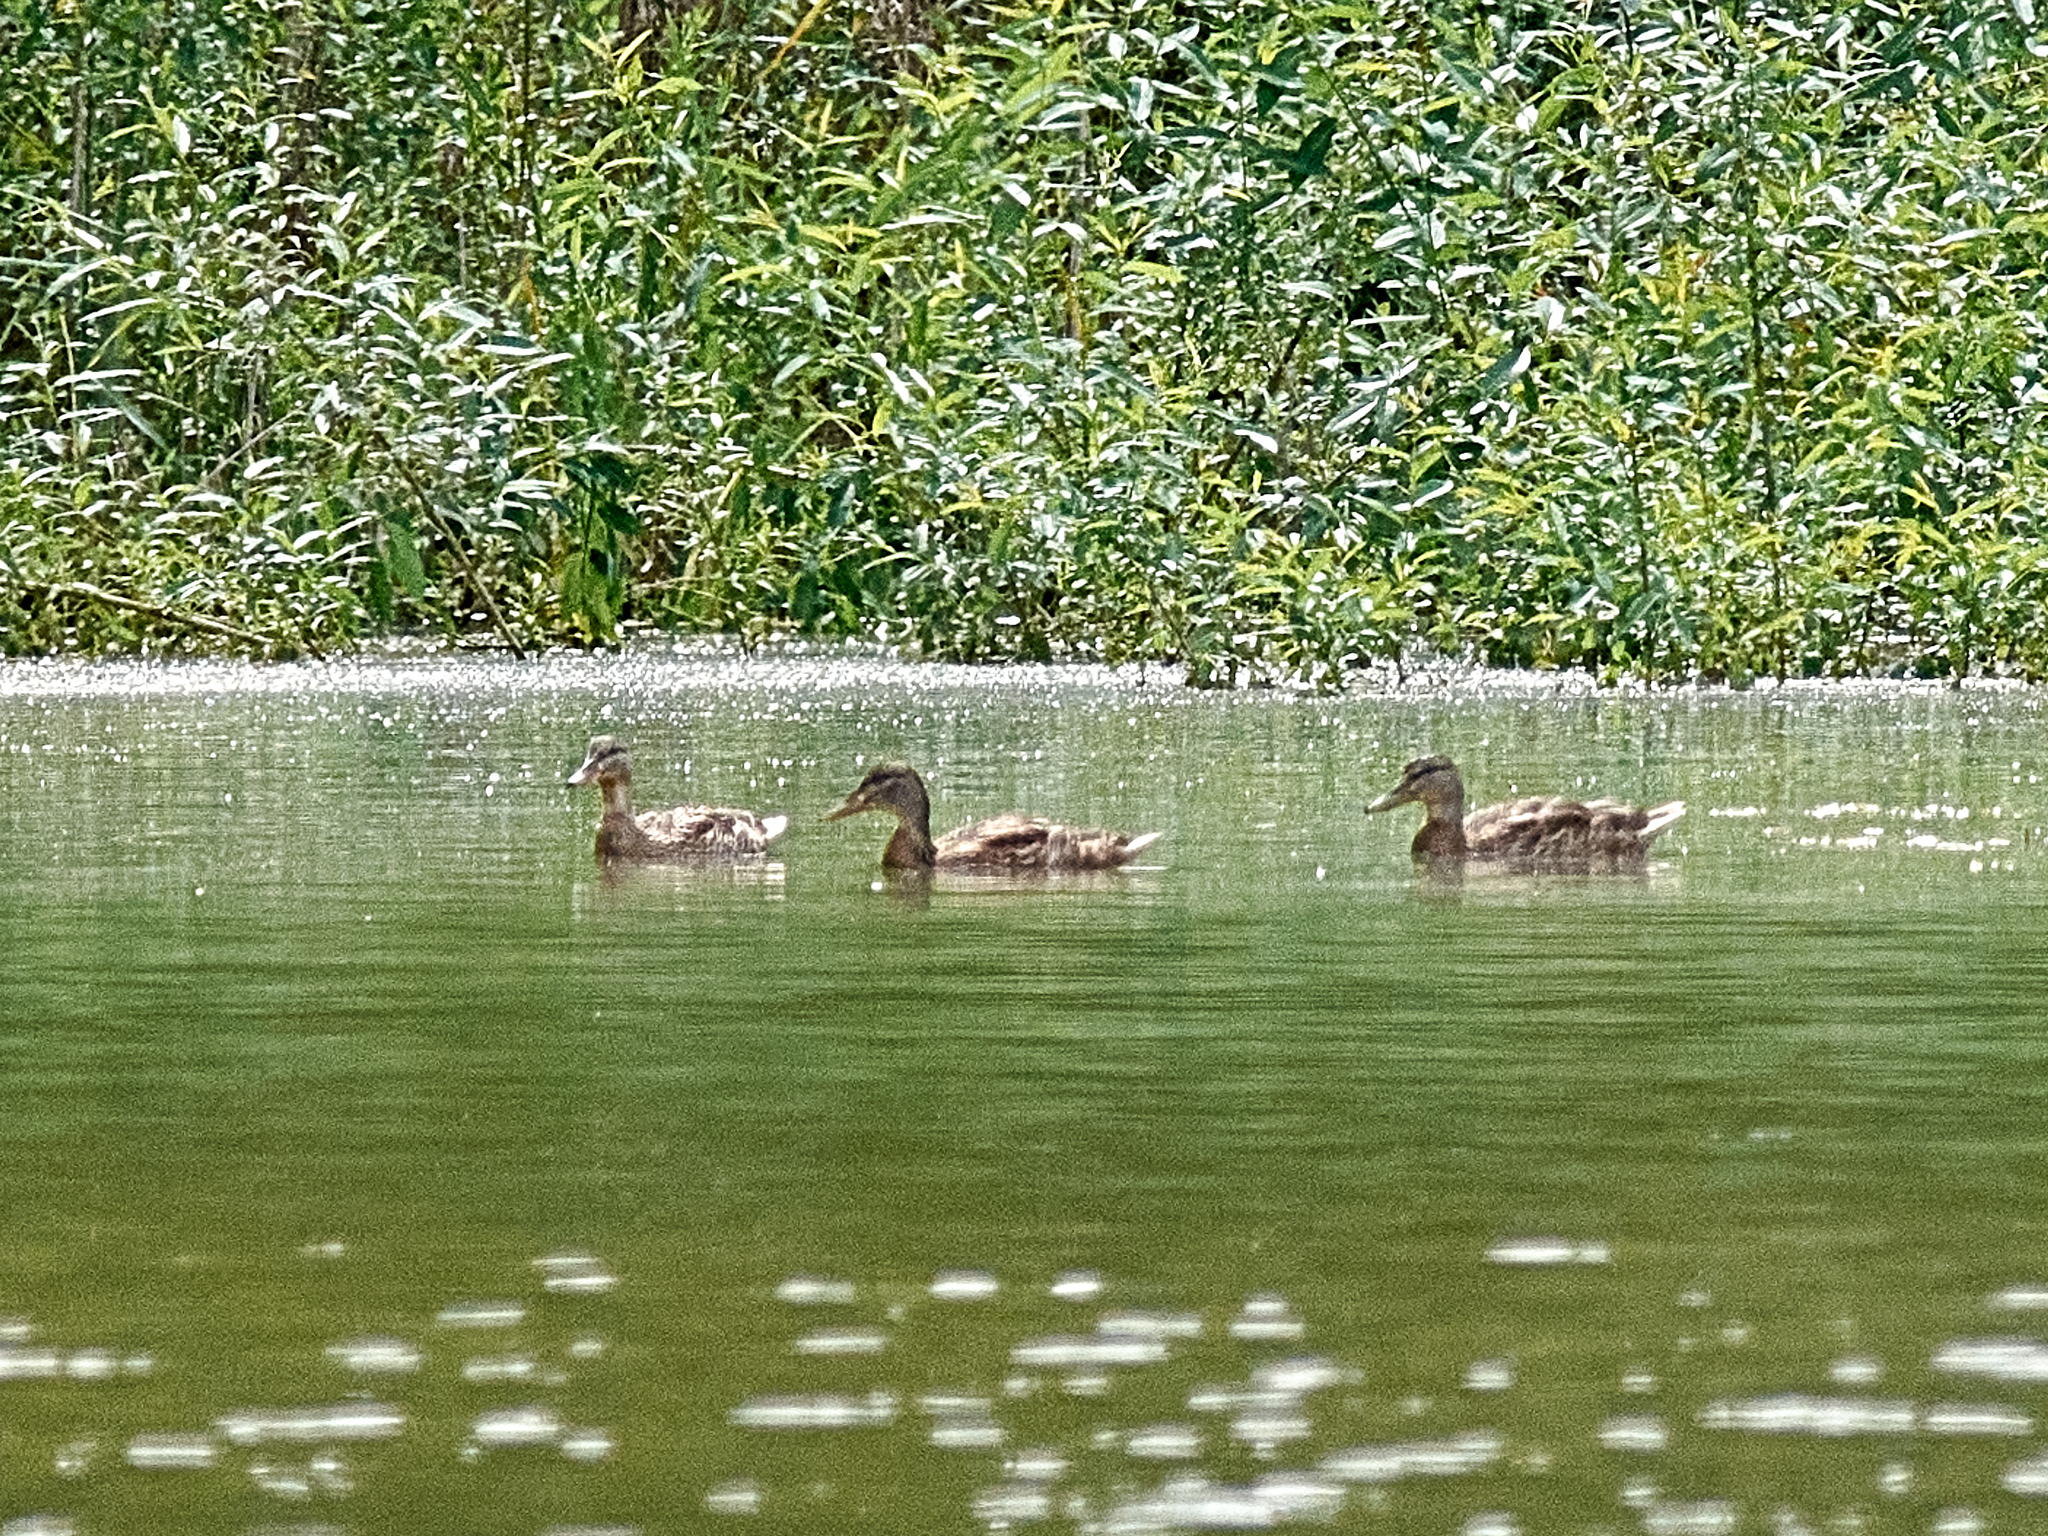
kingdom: Animalia
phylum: Chordata
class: Aves
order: Anseriformes
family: Anatidae
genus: Anas
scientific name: Anas platyrhynchos
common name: Mallard
